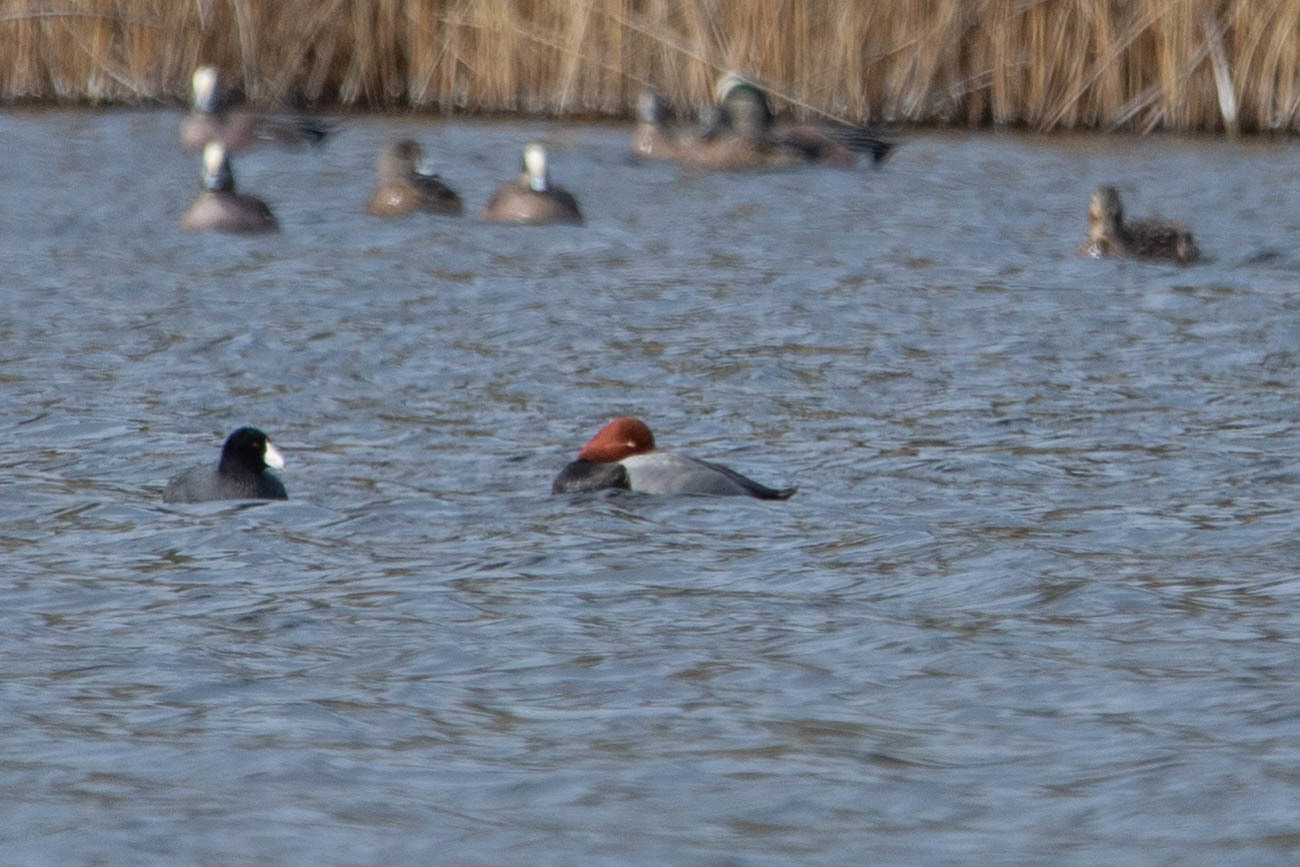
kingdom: Animalia
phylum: Chordata
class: Aves
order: Anseriformes
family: Anatidae
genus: Aythya
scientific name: Aythya americana
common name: Redhead
